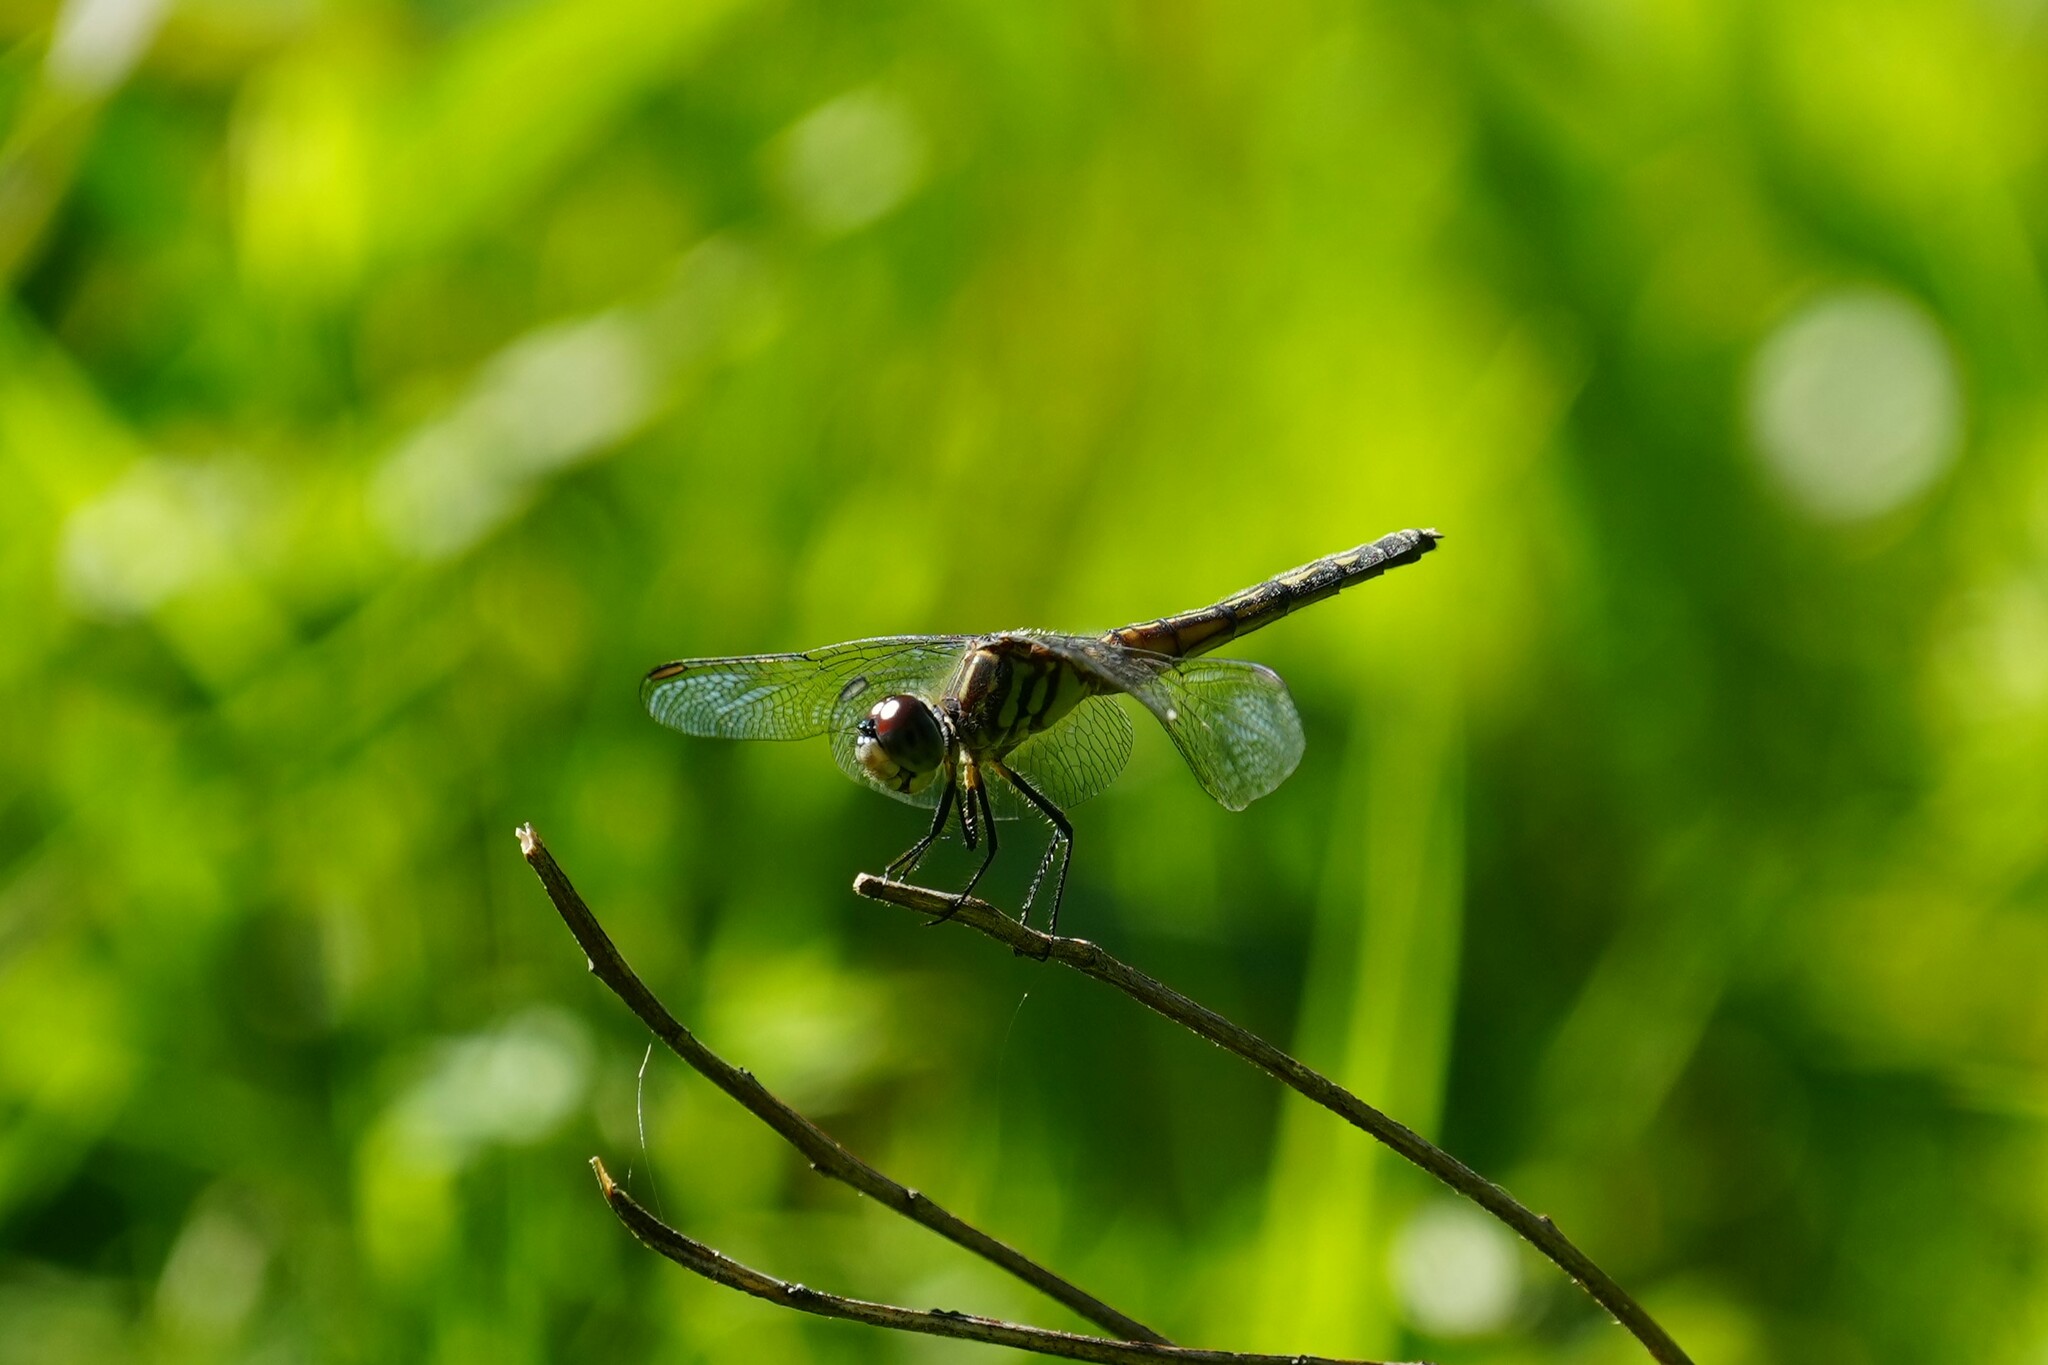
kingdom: Animalia
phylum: Arthropoda
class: Insecta
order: Odonata
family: Libellulidae
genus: Pachydiplax
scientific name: Pachydiplax longipennis
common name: Blue dasher
